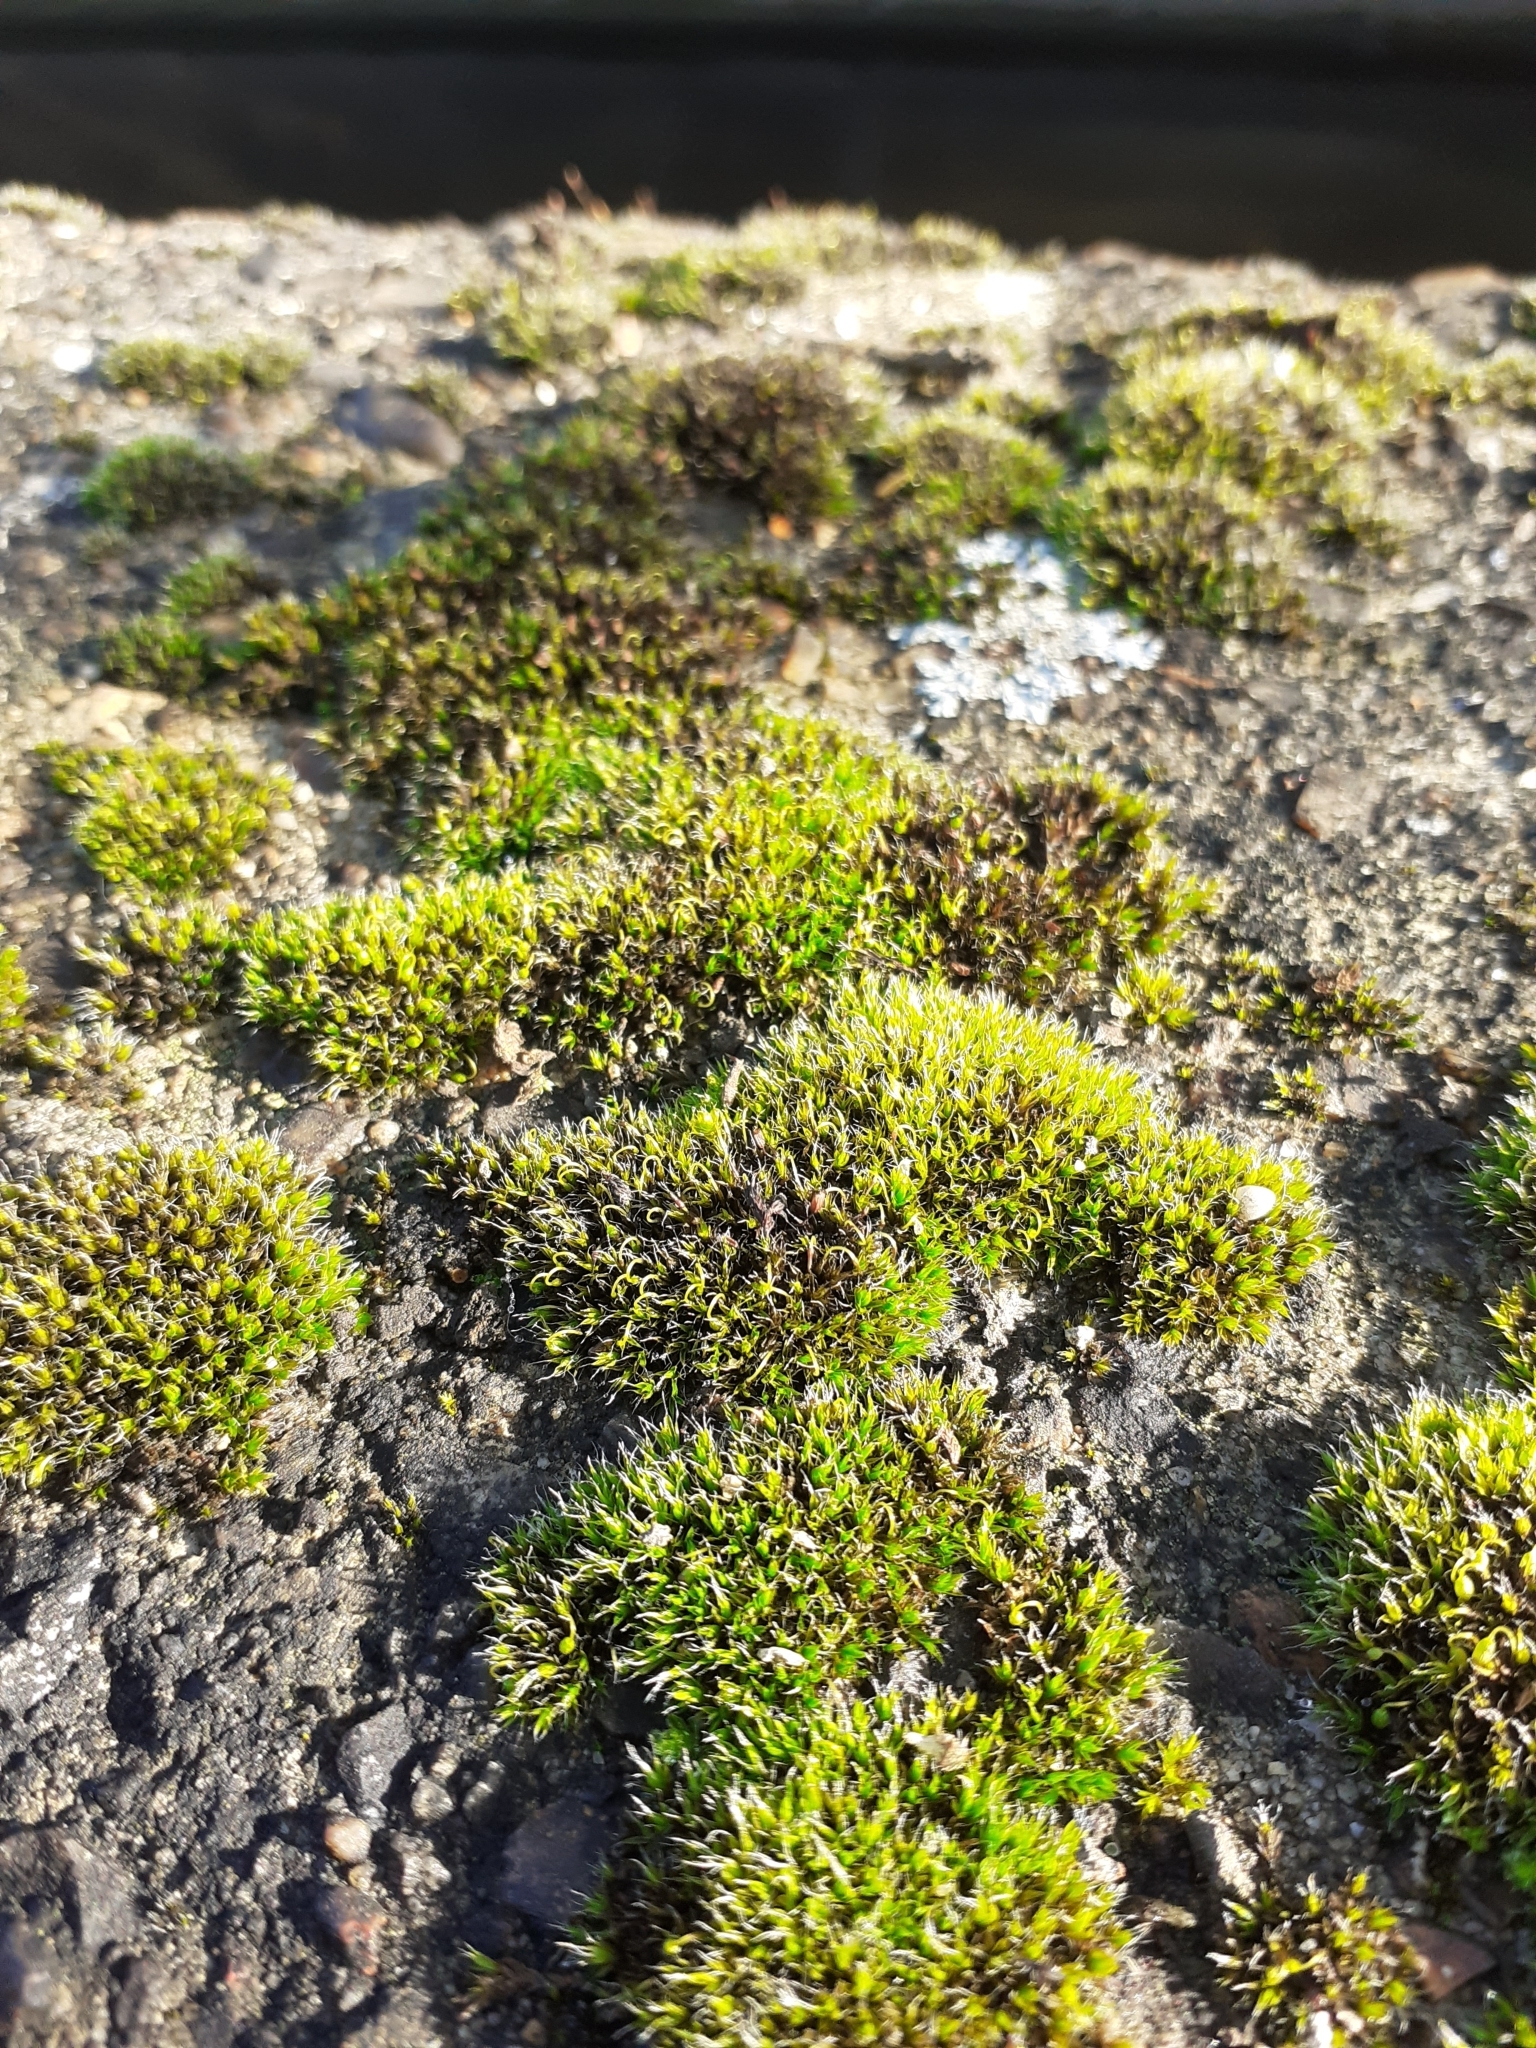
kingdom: Plantae
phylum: Bryophyta
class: Bryopsida
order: Grimmiales
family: Grimmiaceae
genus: Grimmia
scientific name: Grimmia pulvinata
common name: Grey-cushioned grimmia
